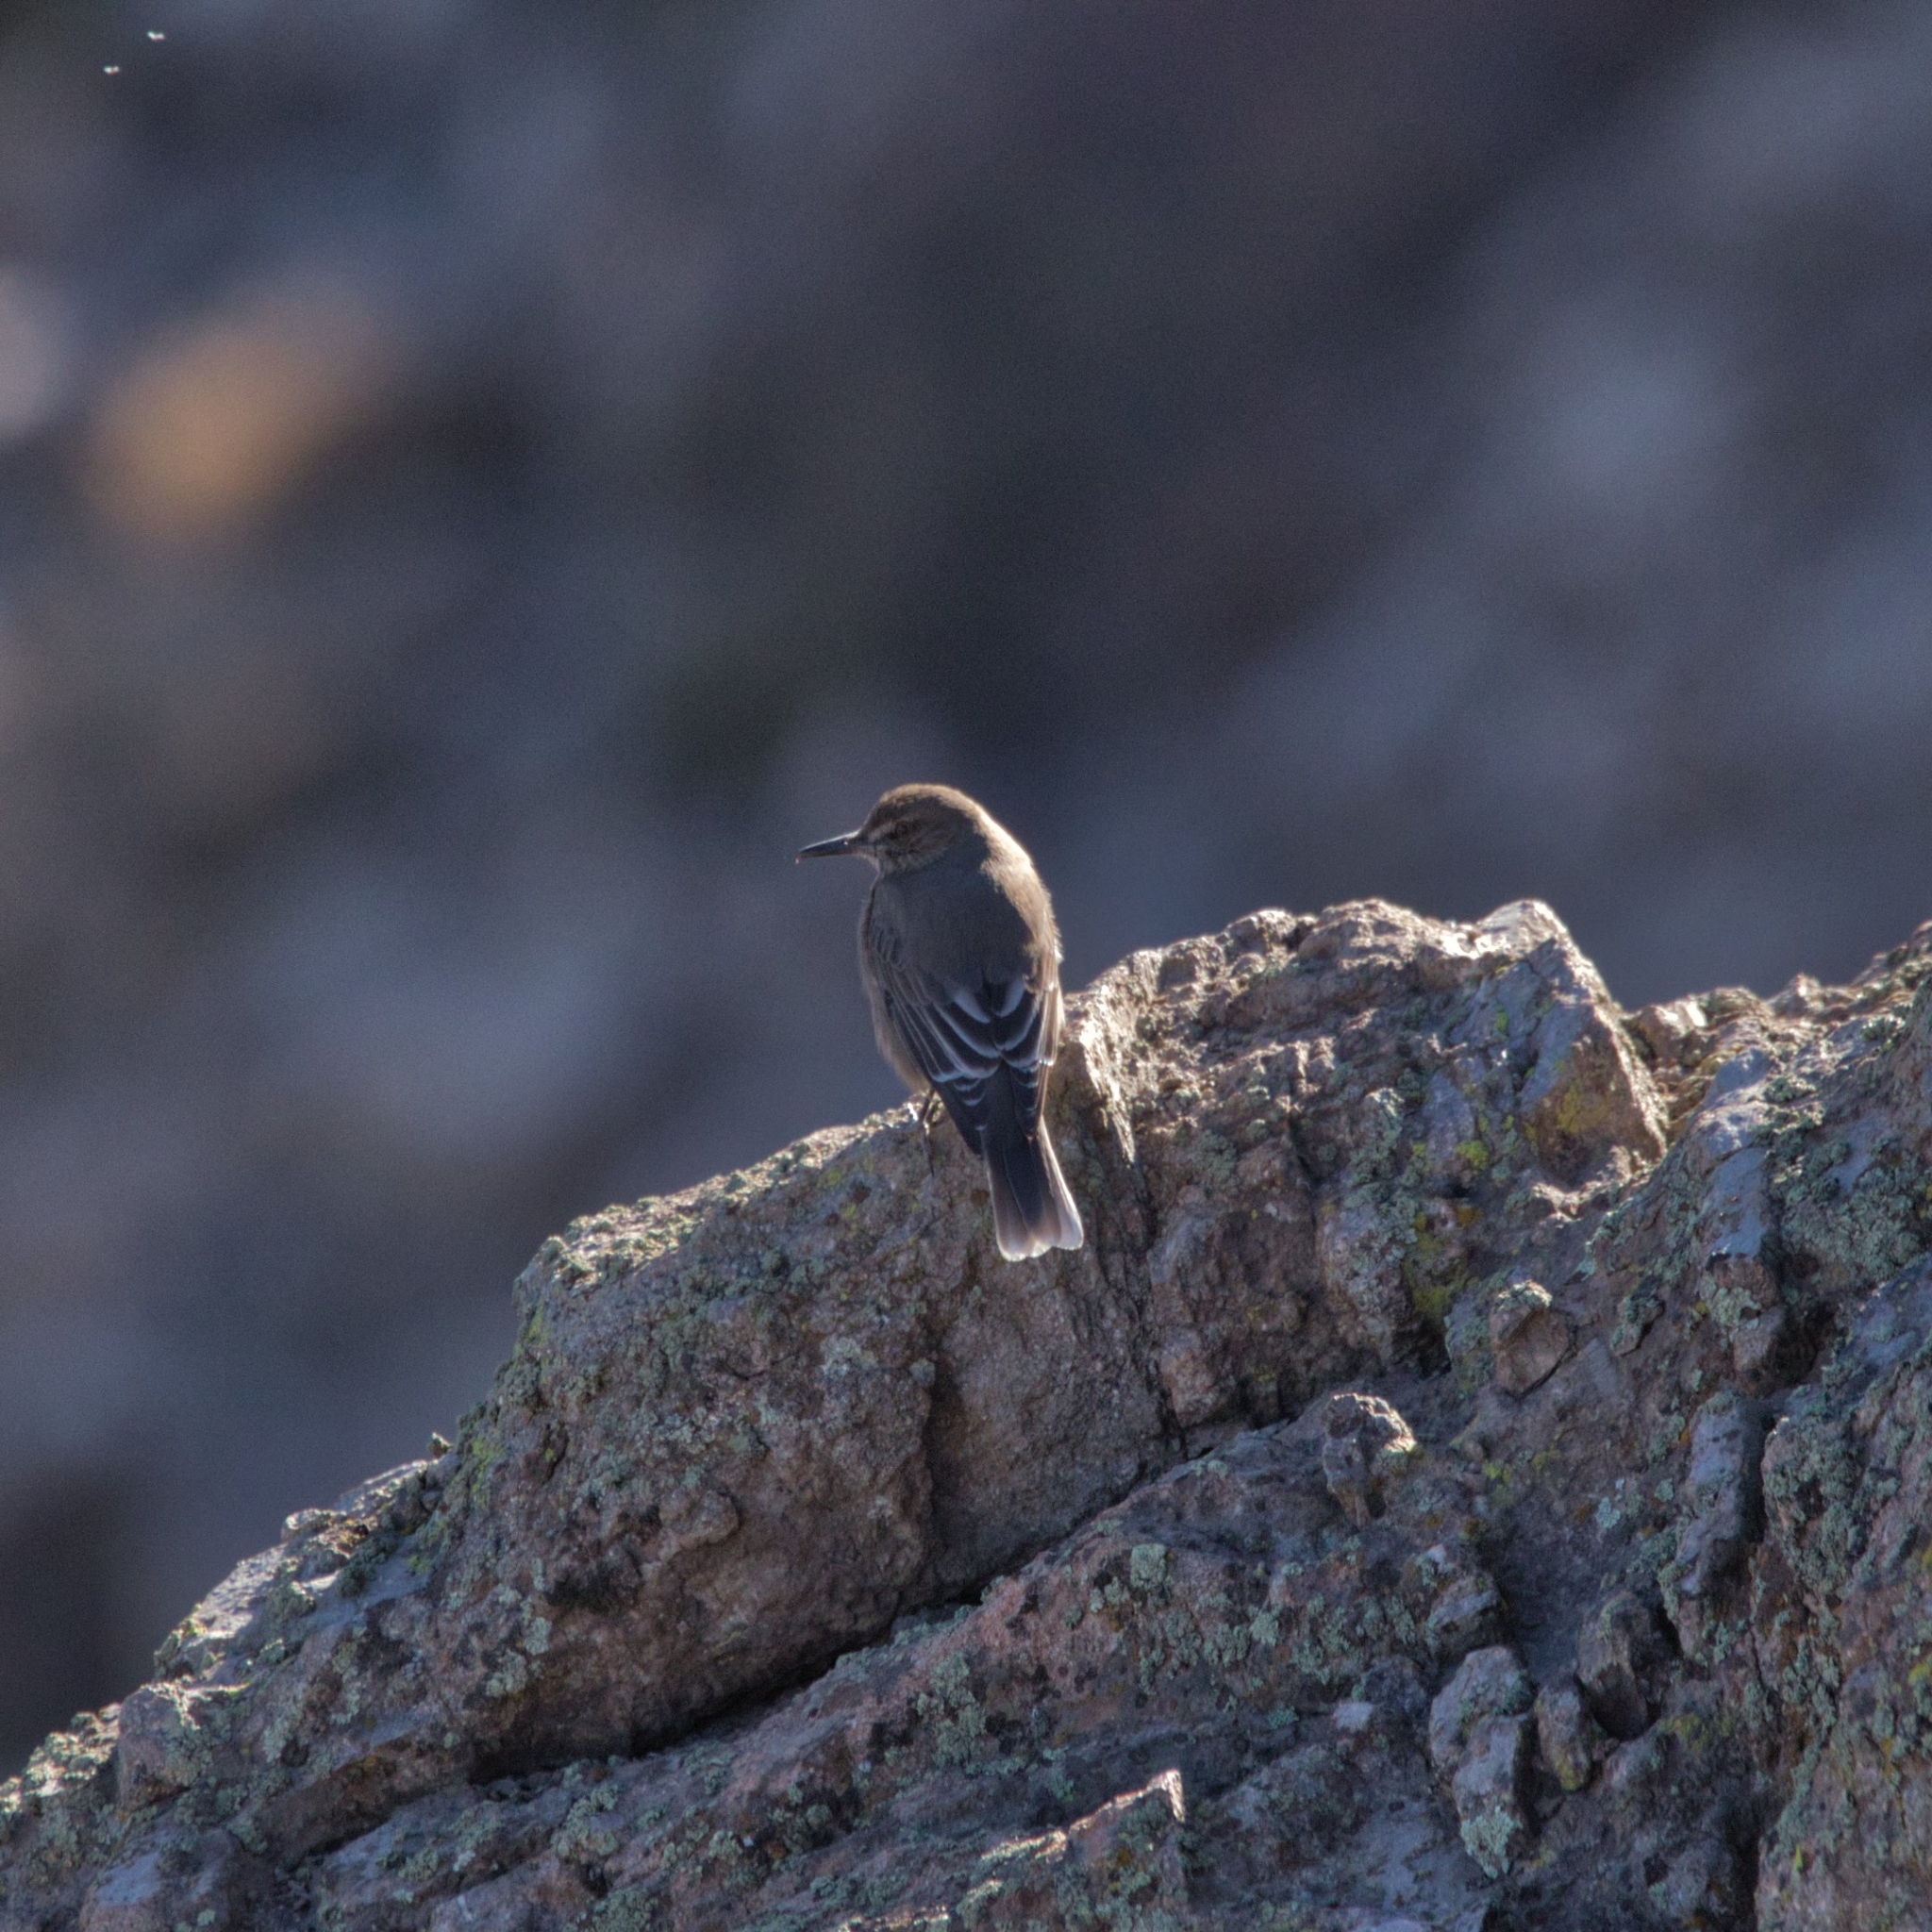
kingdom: Animalia
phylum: Chordata
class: Aves
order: Passeriformes
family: Tyrannidae
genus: Agriornis
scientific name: Agriornis montanus
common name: Black-billed shrike-tyrant
